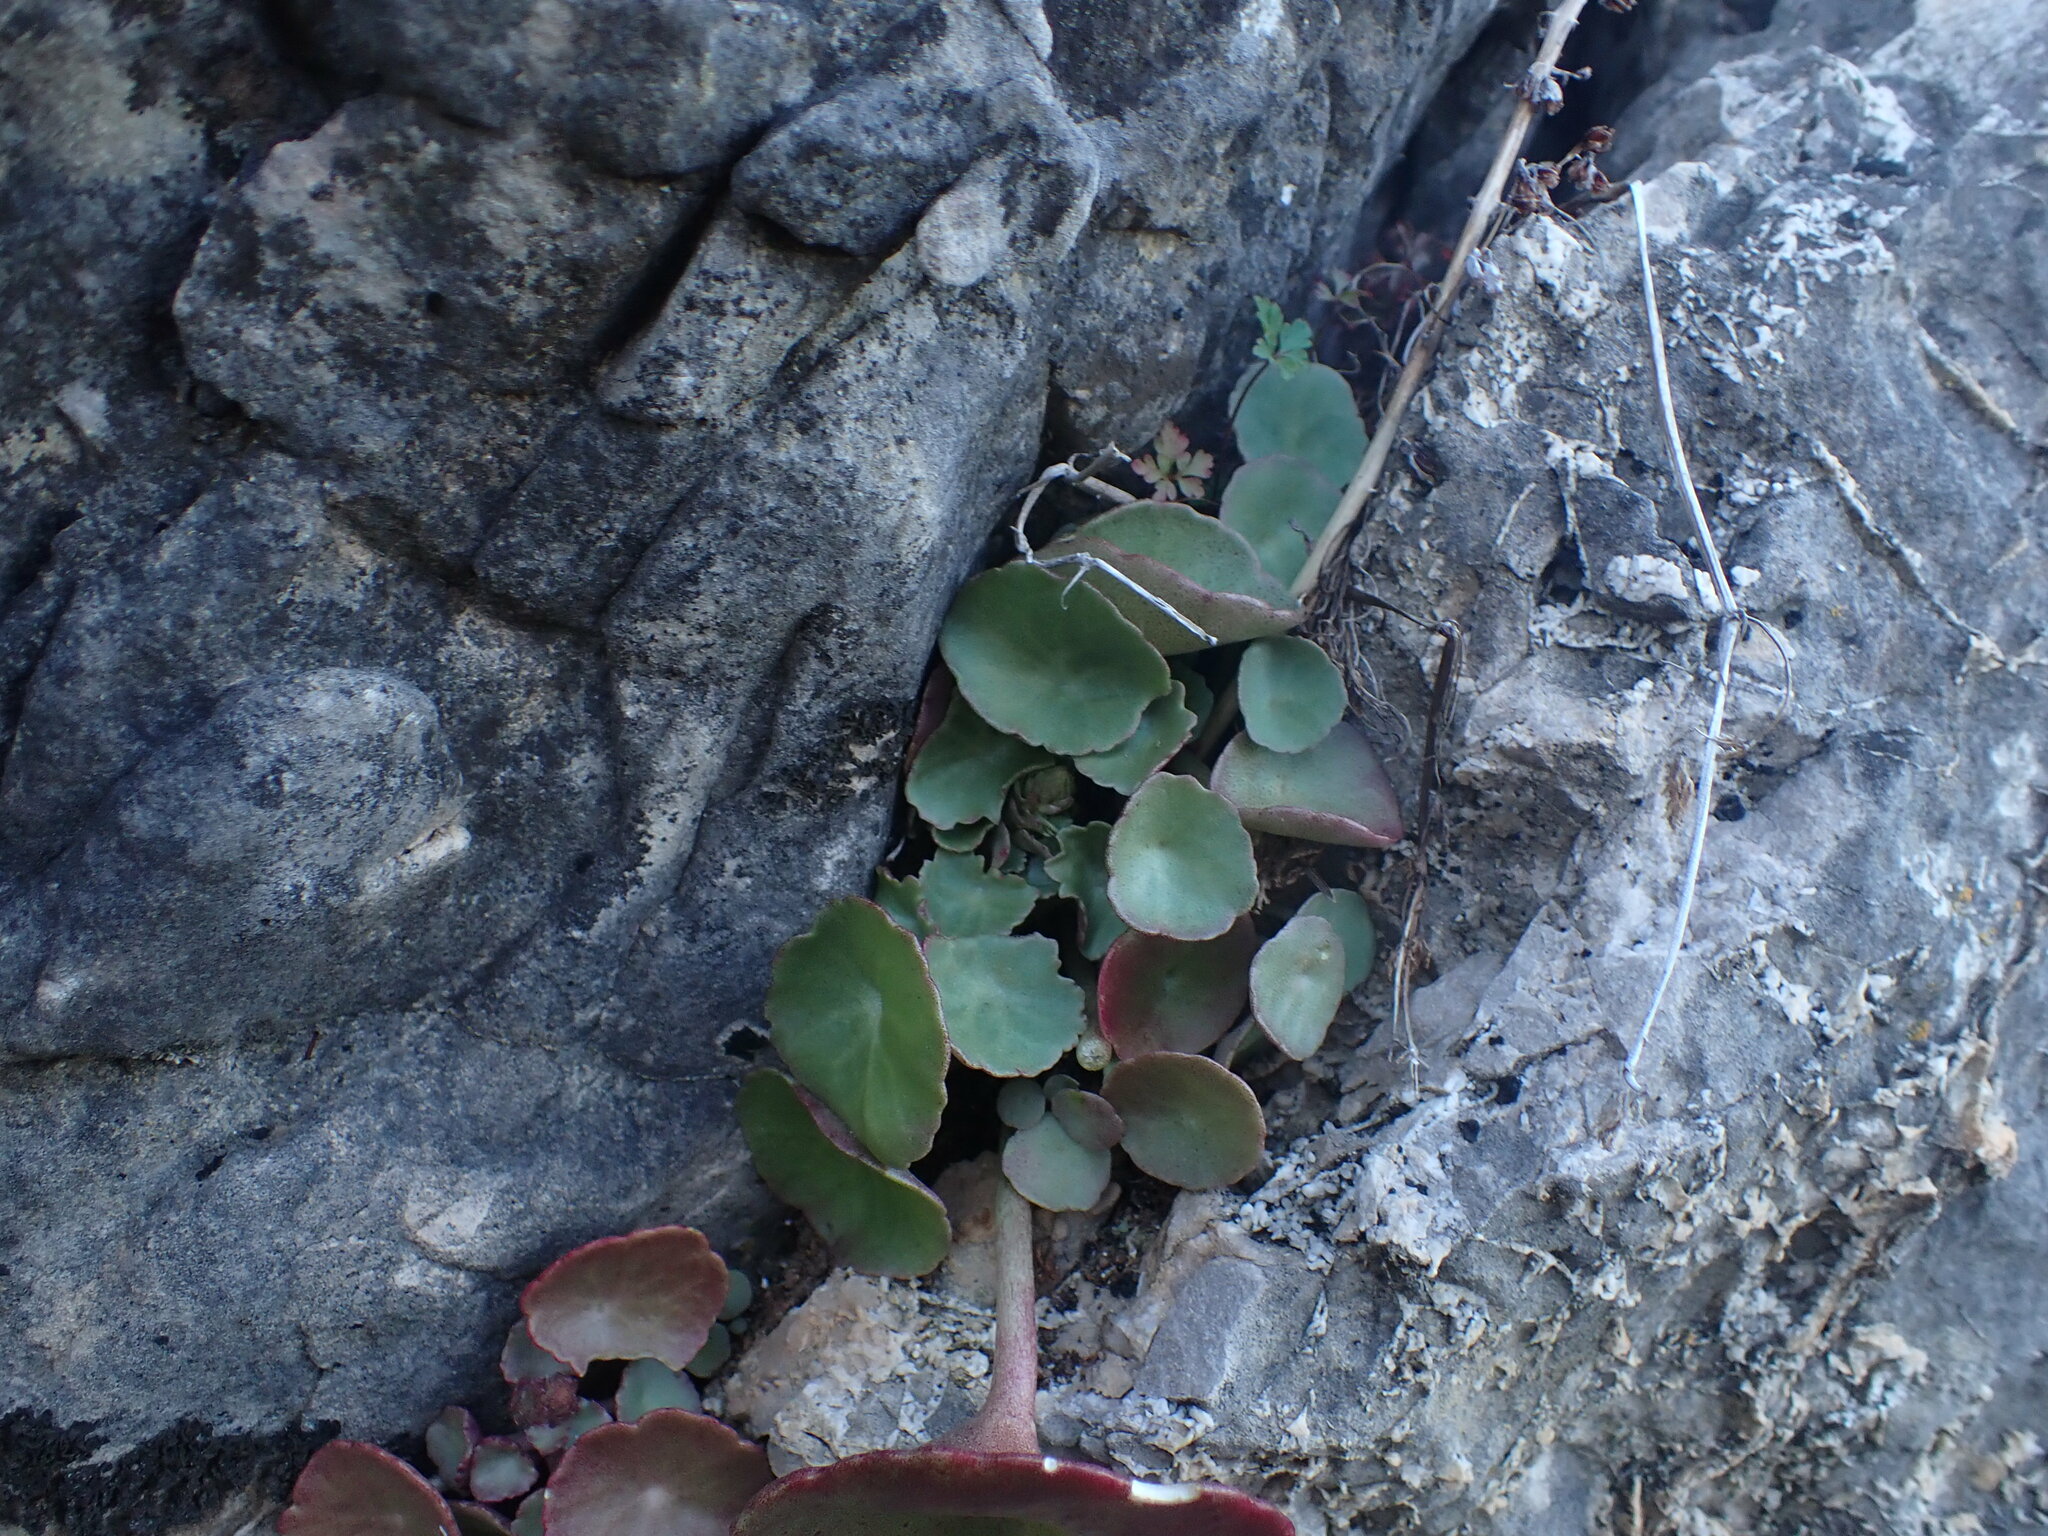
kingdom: Plantae
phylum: Tracheophyta
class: Magnoliopsida
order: Saxifragales
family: Crassulaceae
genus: Umbilicus
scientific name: Umbilicus rupestris
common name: Navelwort
